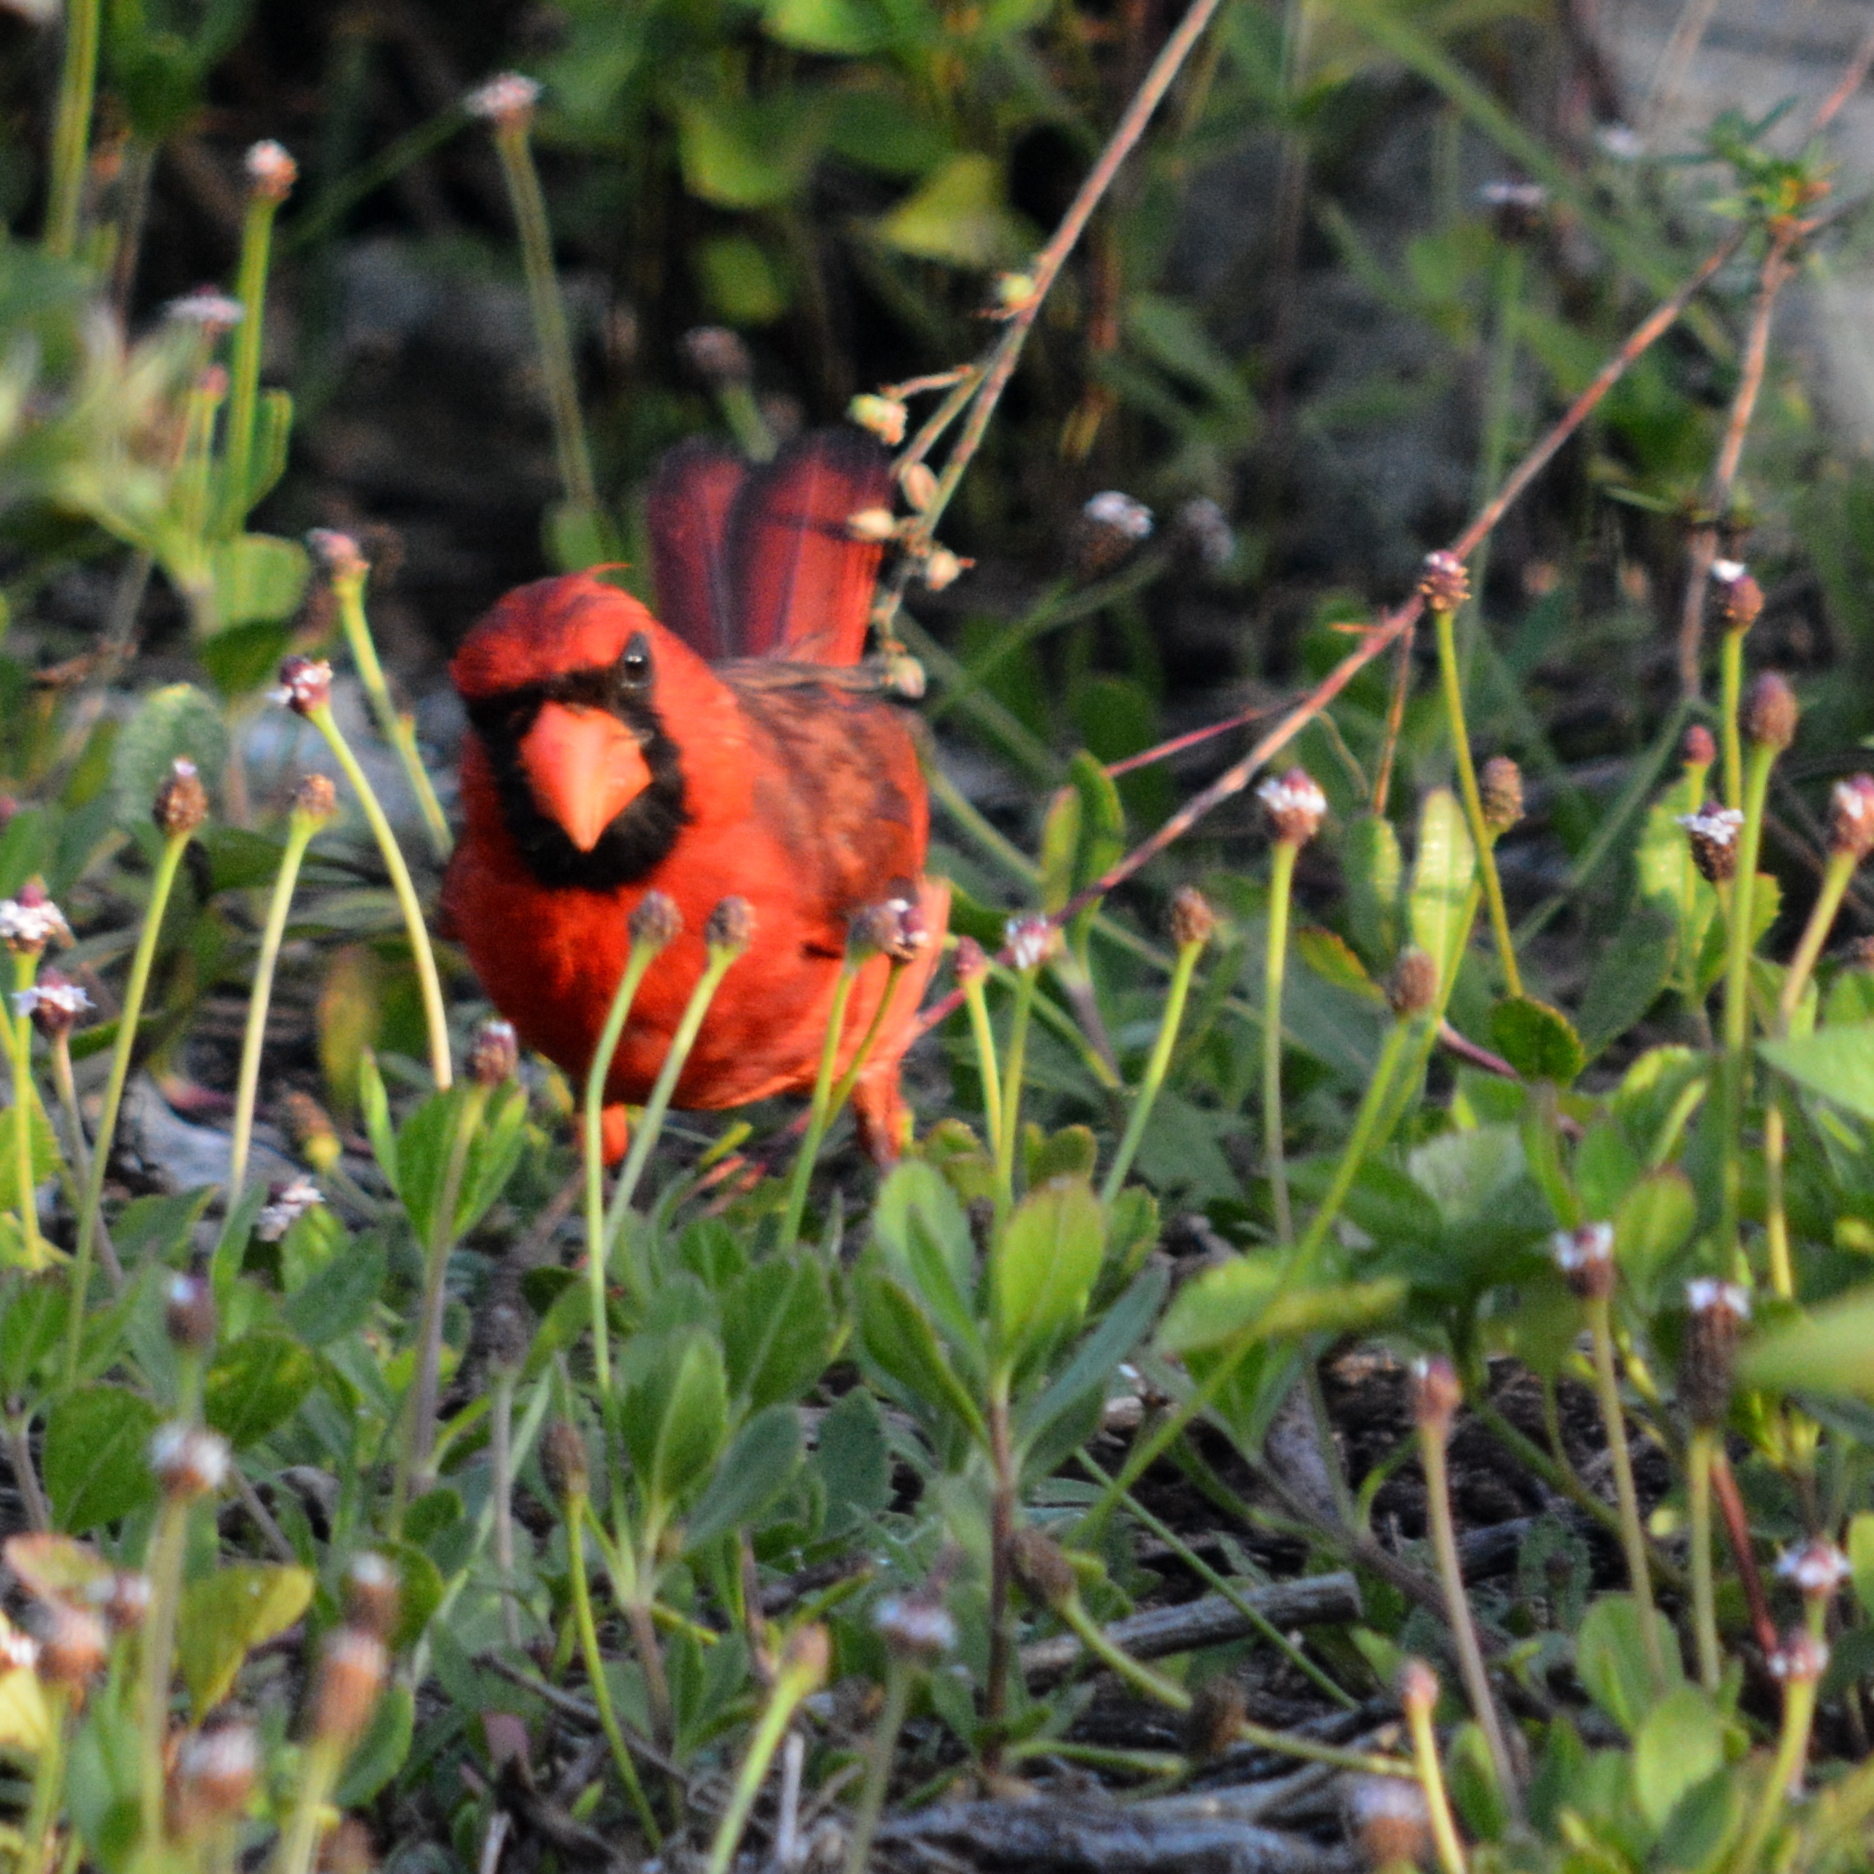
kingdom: Animalia
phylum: Chordata
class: Aves
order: Passeriformes
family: Cardinalidae
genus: Cardinalis
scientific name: Cardinalis cardinalis
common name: Northern cardinal
